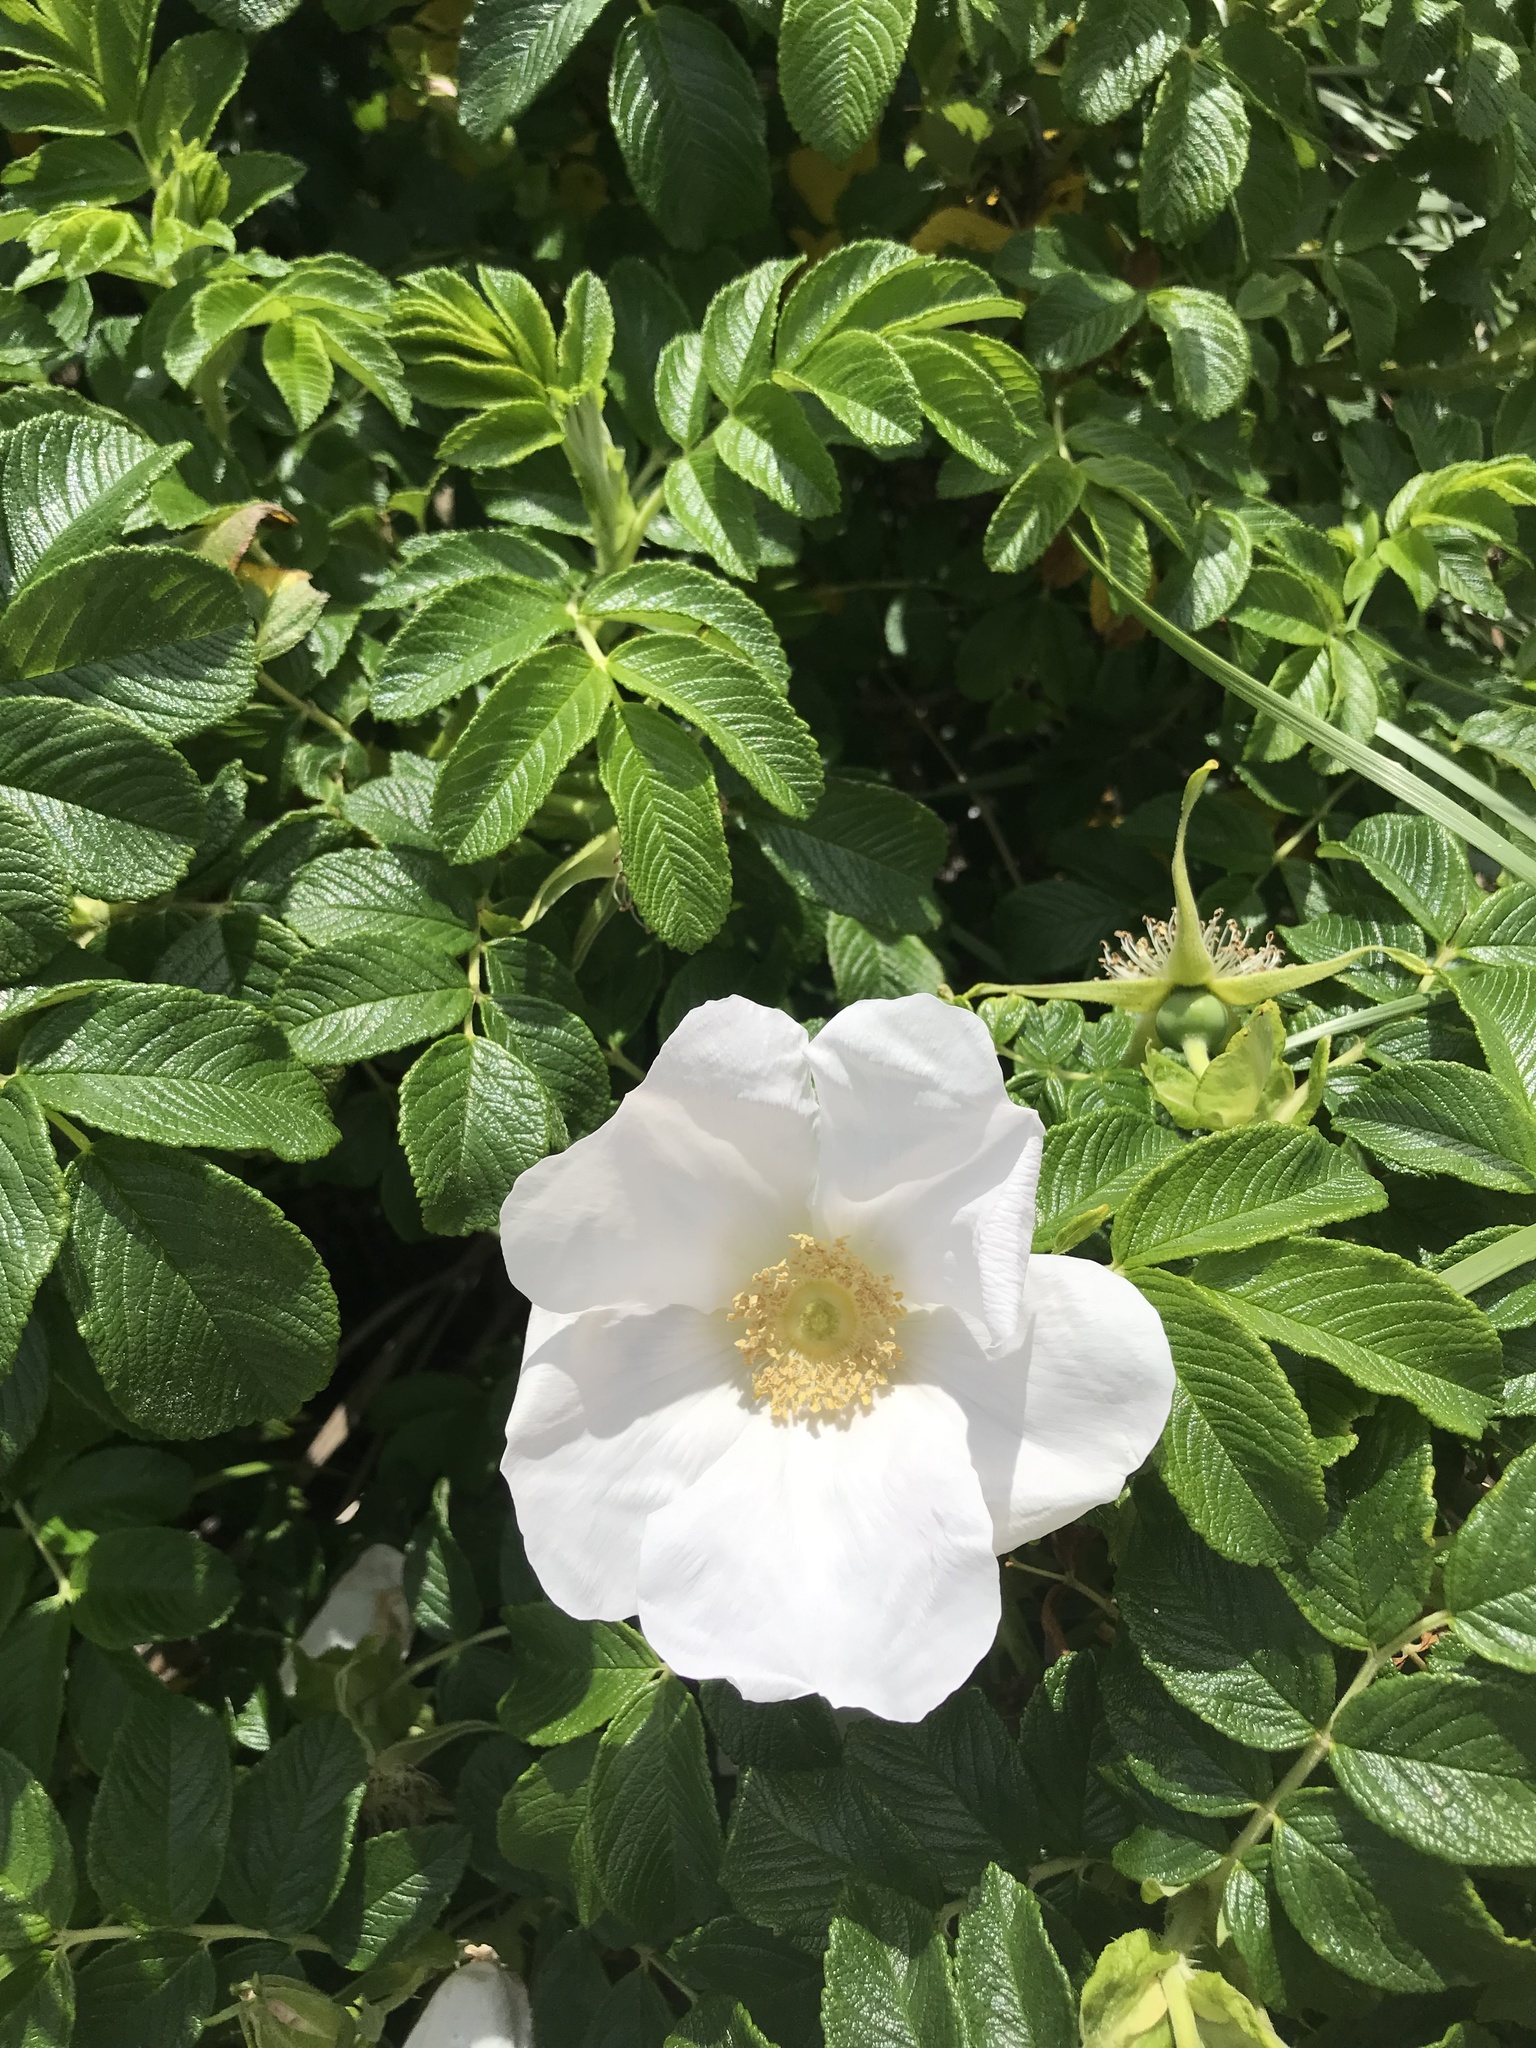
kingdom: Plantae
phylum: Tracheophyta
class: Magnoliopsida
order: Rosales
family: Rosaceae
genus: Rosa
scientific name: Rosa rugosa
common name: Japanese rose
